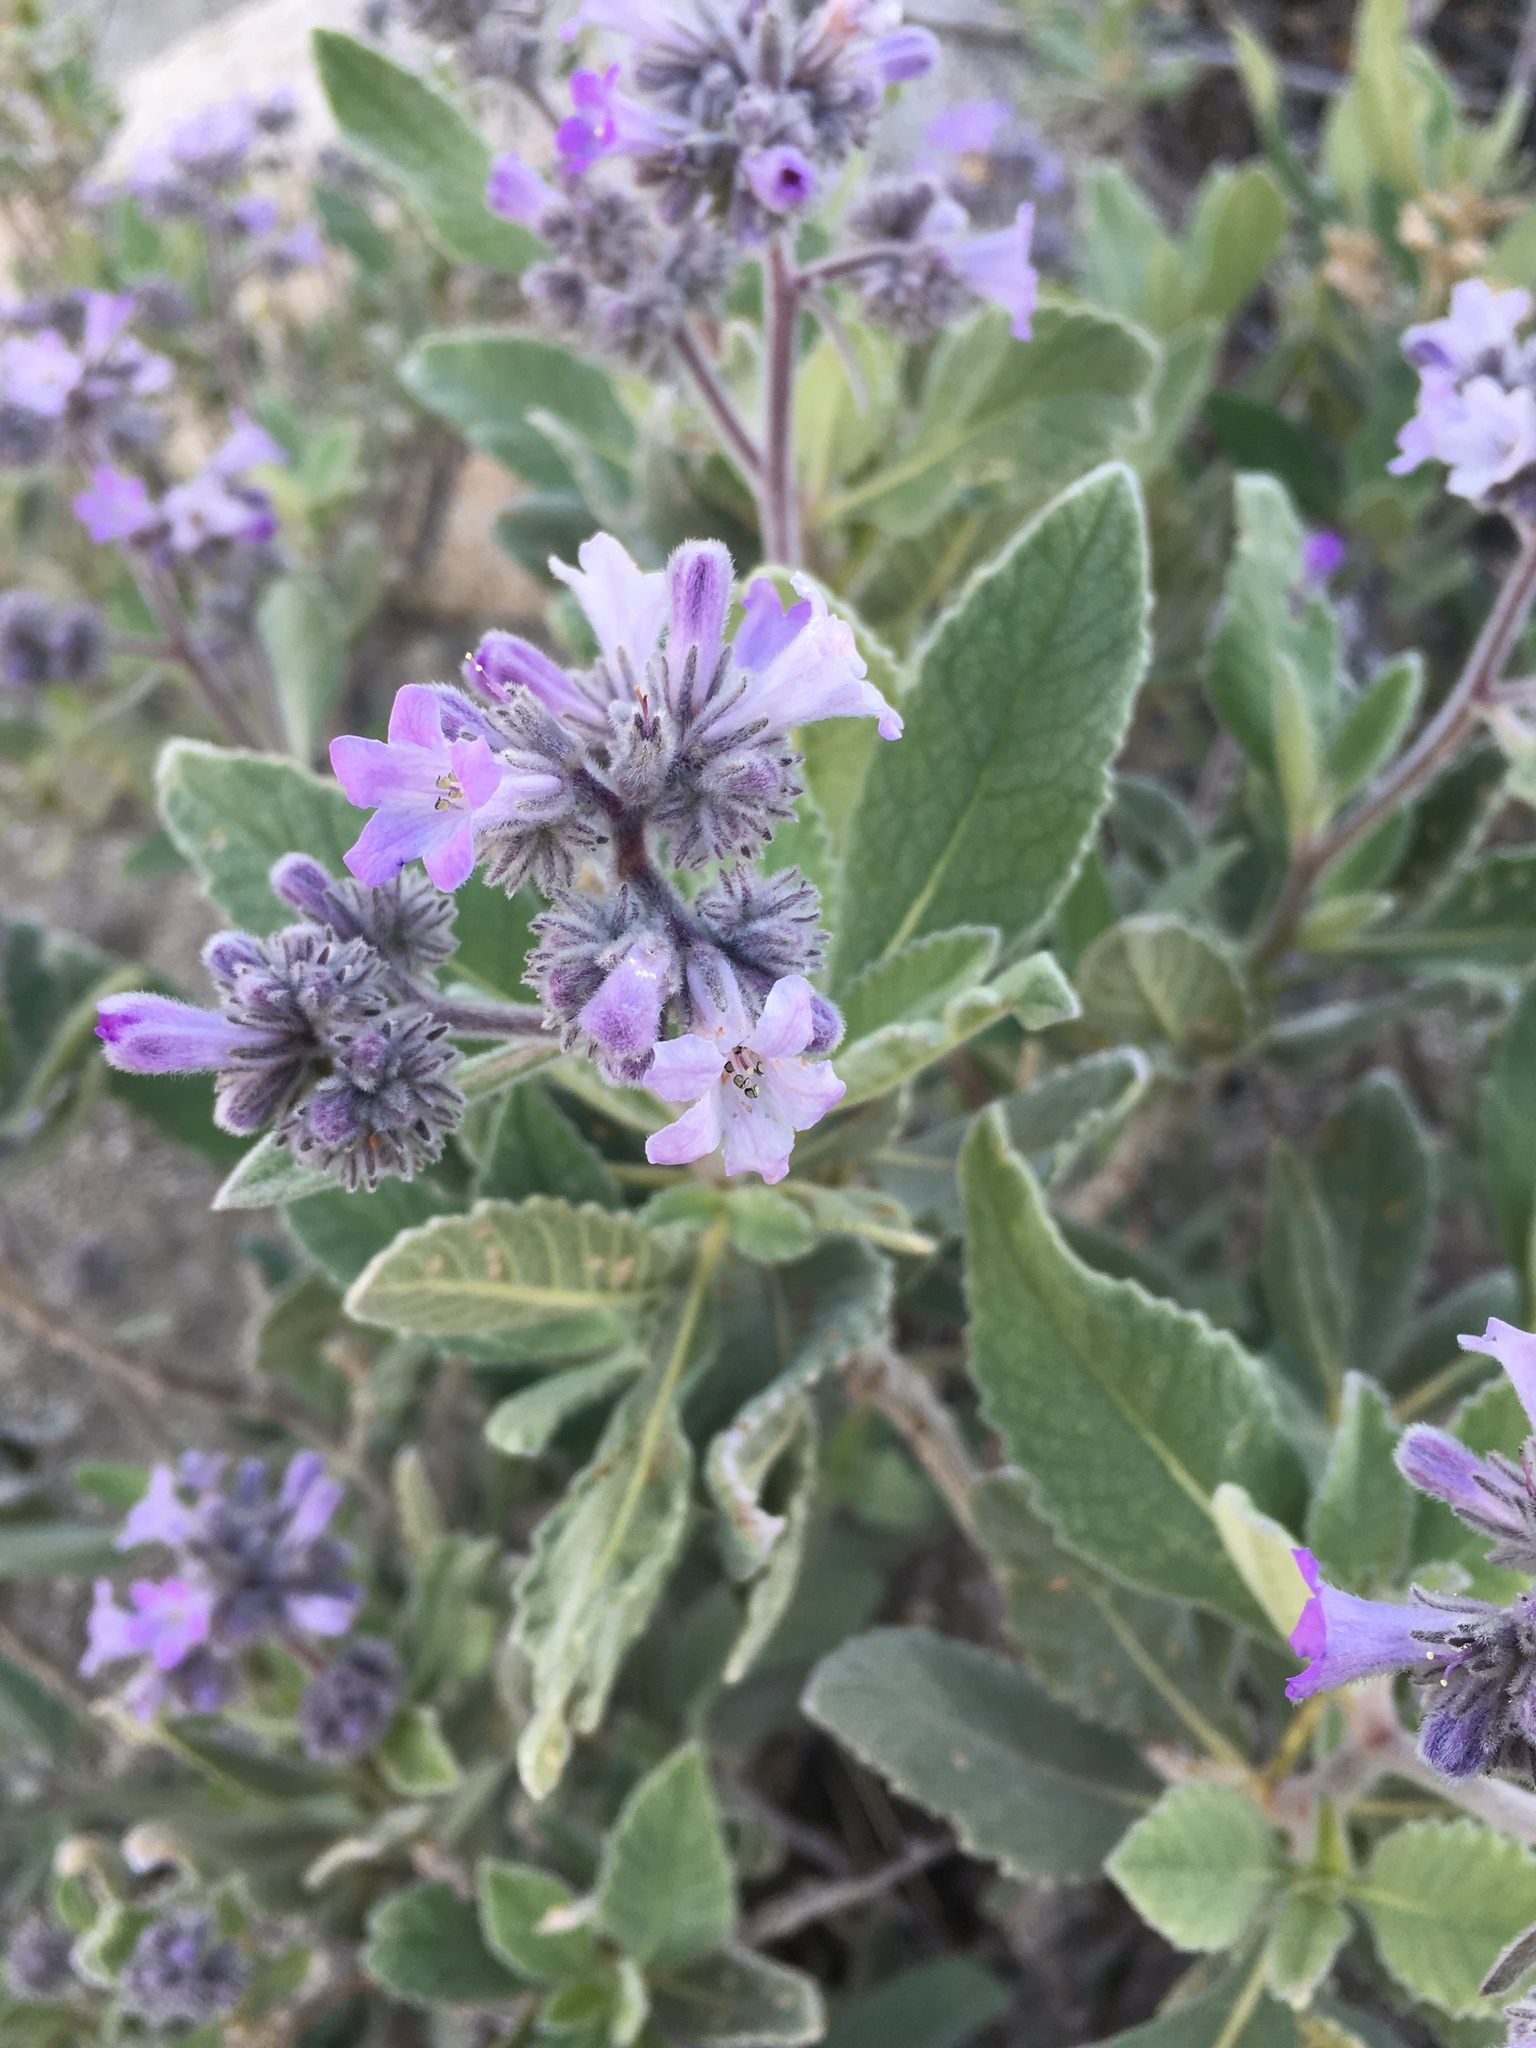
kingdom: Plantae
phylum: Tracheophyta
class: Magnoliopsida
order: Boraginales
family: Namaceae
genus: Eriodictyon
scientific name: Eriodictyon crassifolium
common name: Thick-leaf yerba-santa
